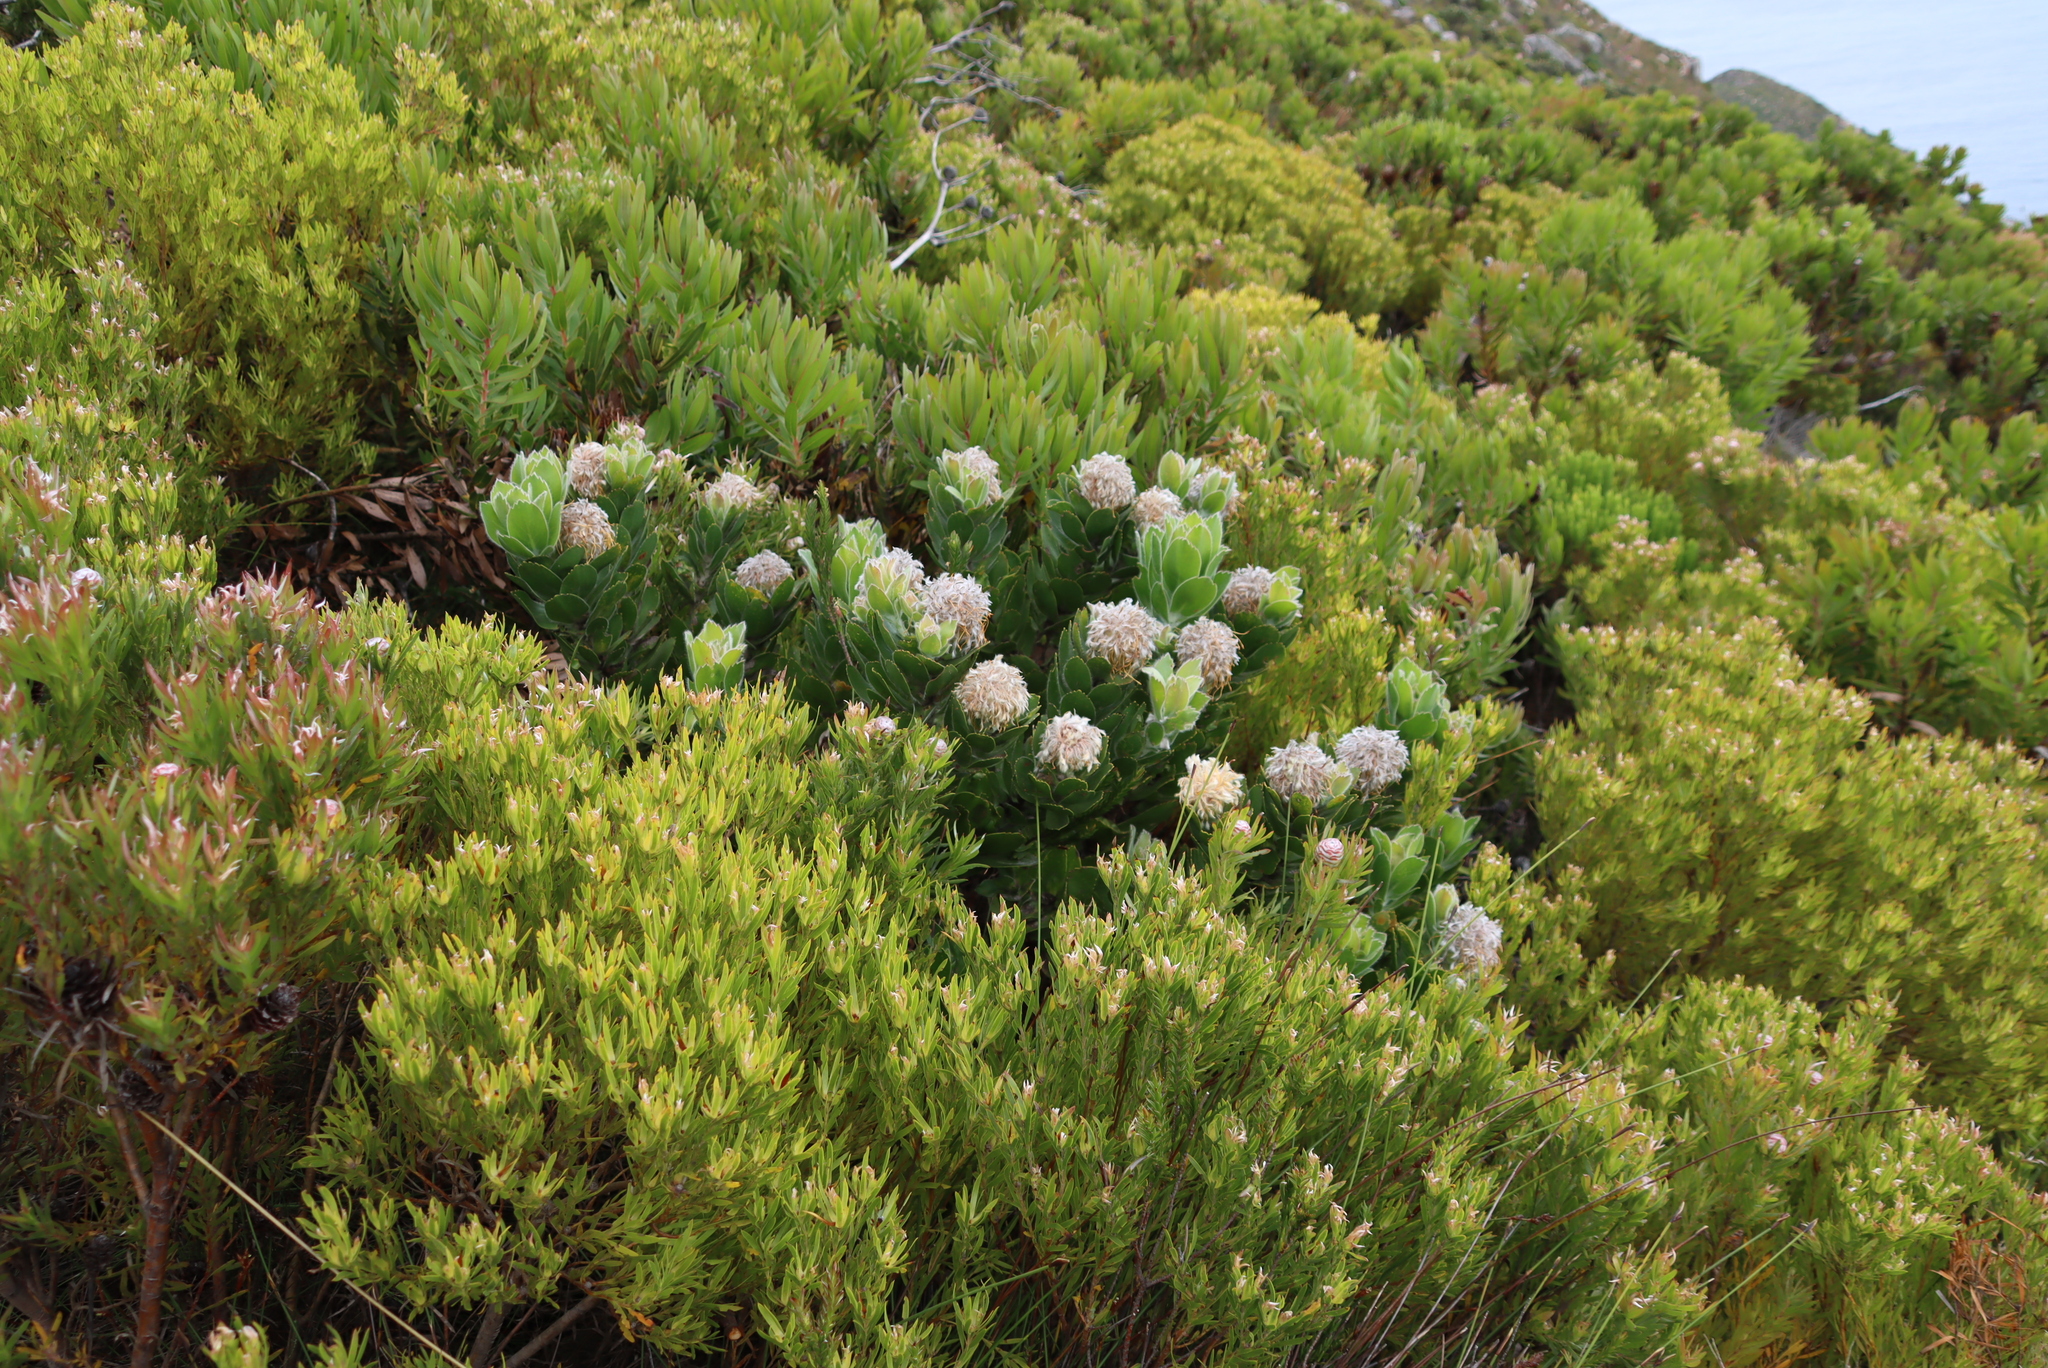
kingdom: Plantae
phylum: Tracheophyta
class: Magnoliopsida
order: Proteales
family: Proteaceae
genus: Leucadendron
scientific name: Leucadendron xanthoconus
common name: Sickle-leaf conebush
